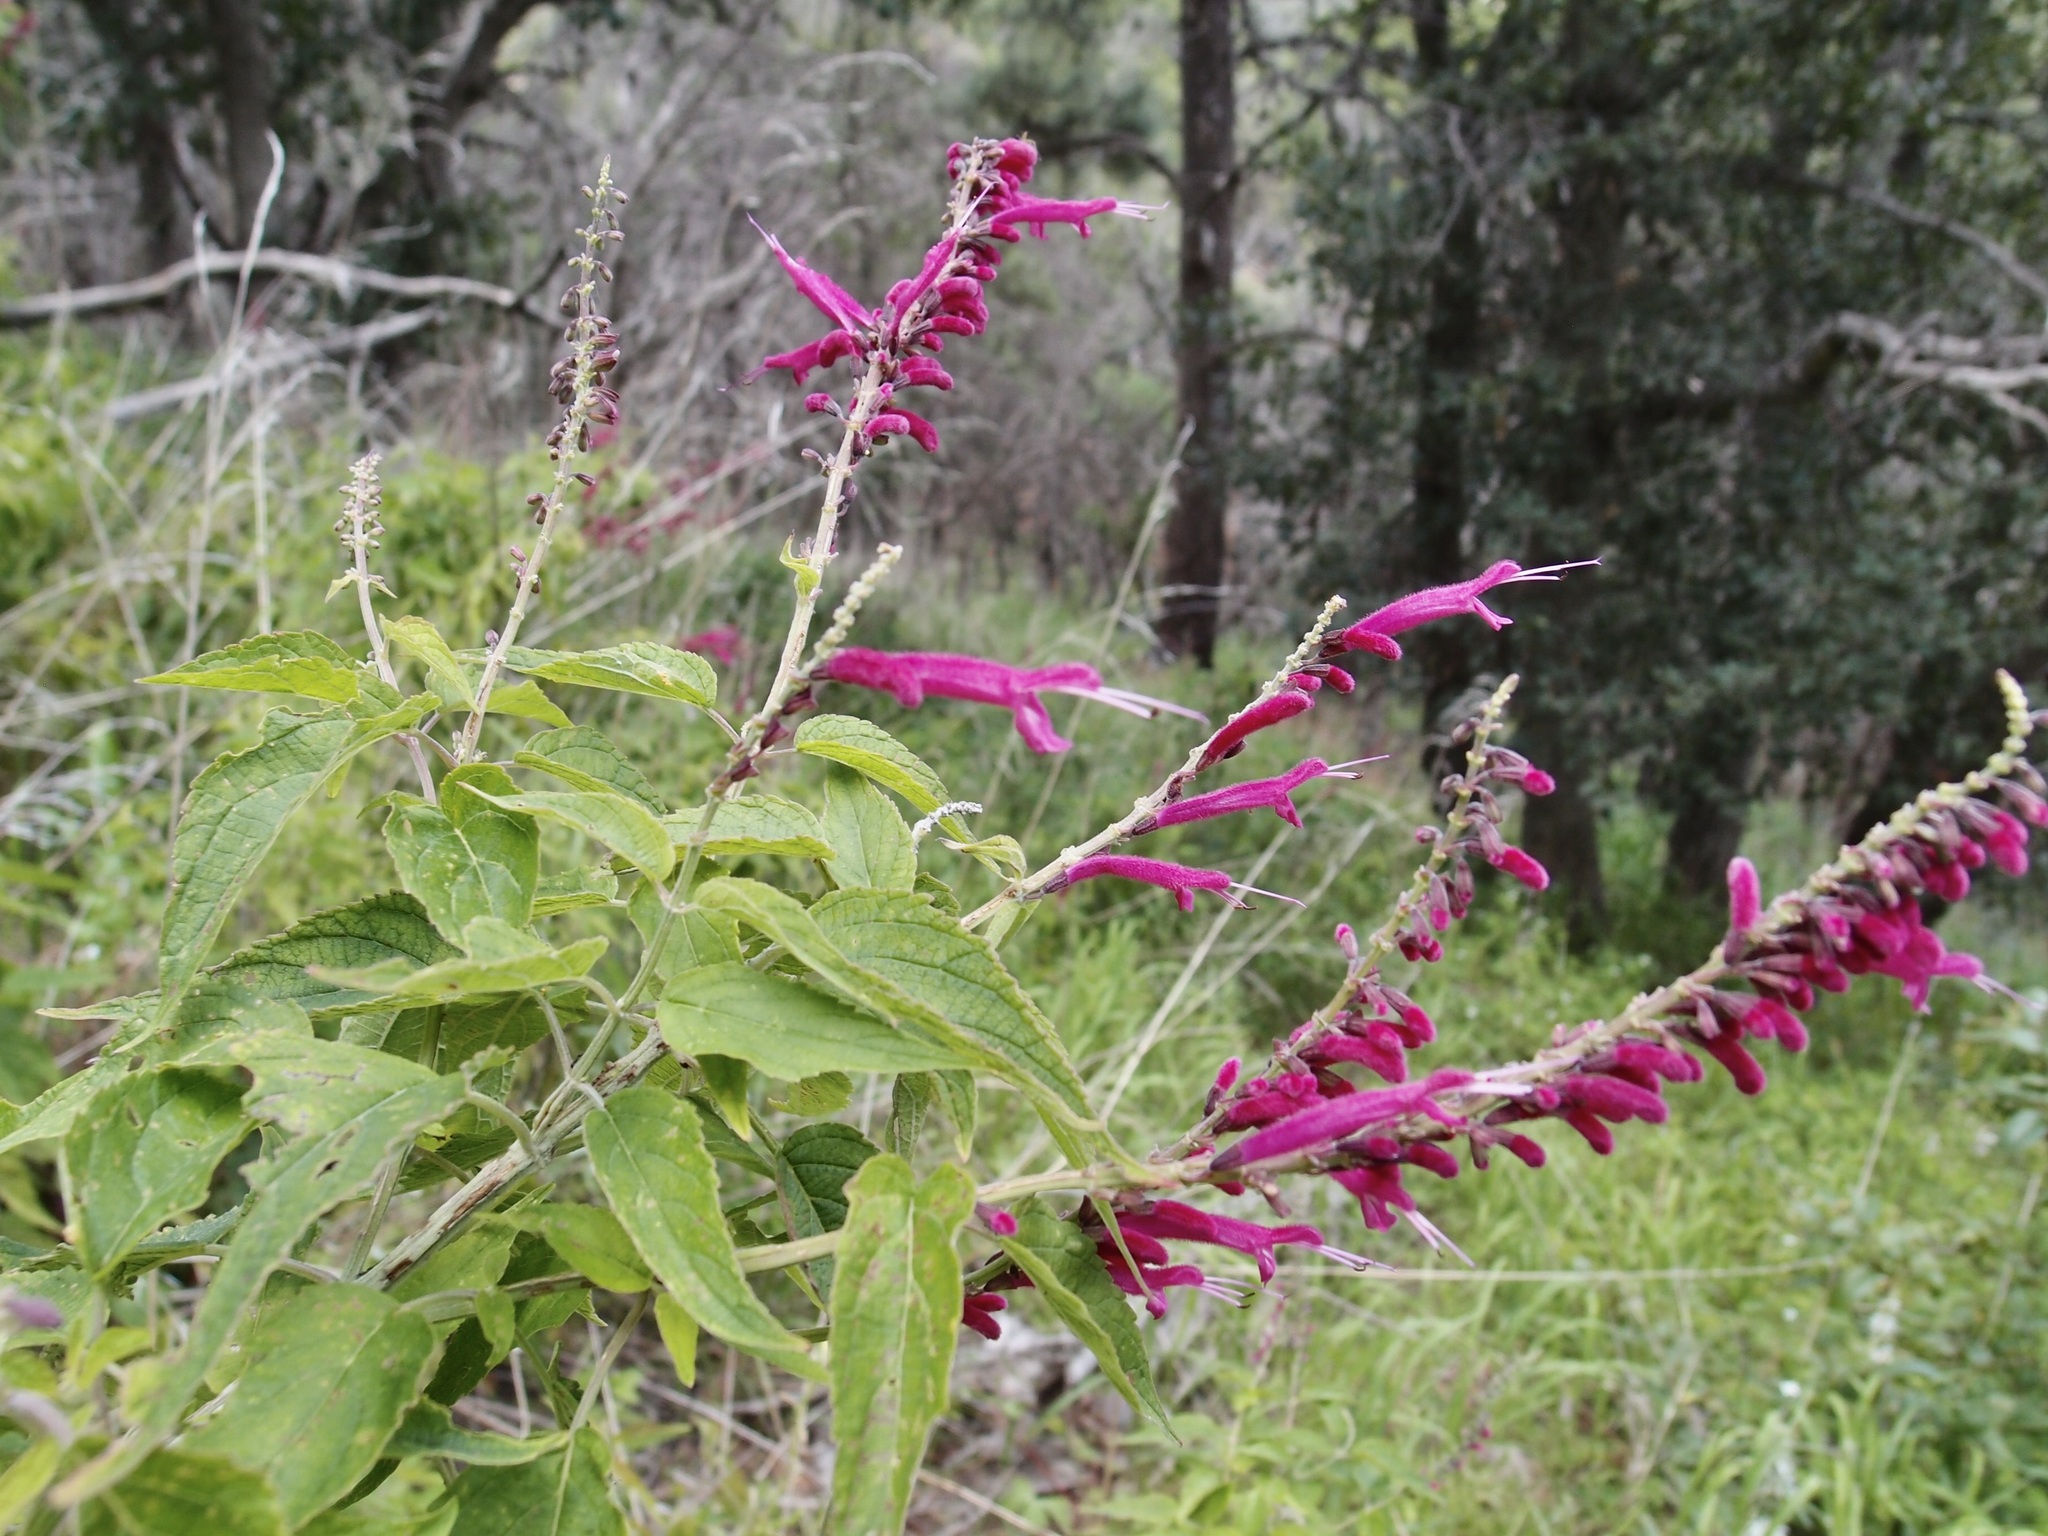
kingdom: Plantae
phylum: Tracheophyta
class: Magnoliopsida
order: Lamiales
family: Lamiaceae
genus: Salvia
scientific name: Salvia iodantha
